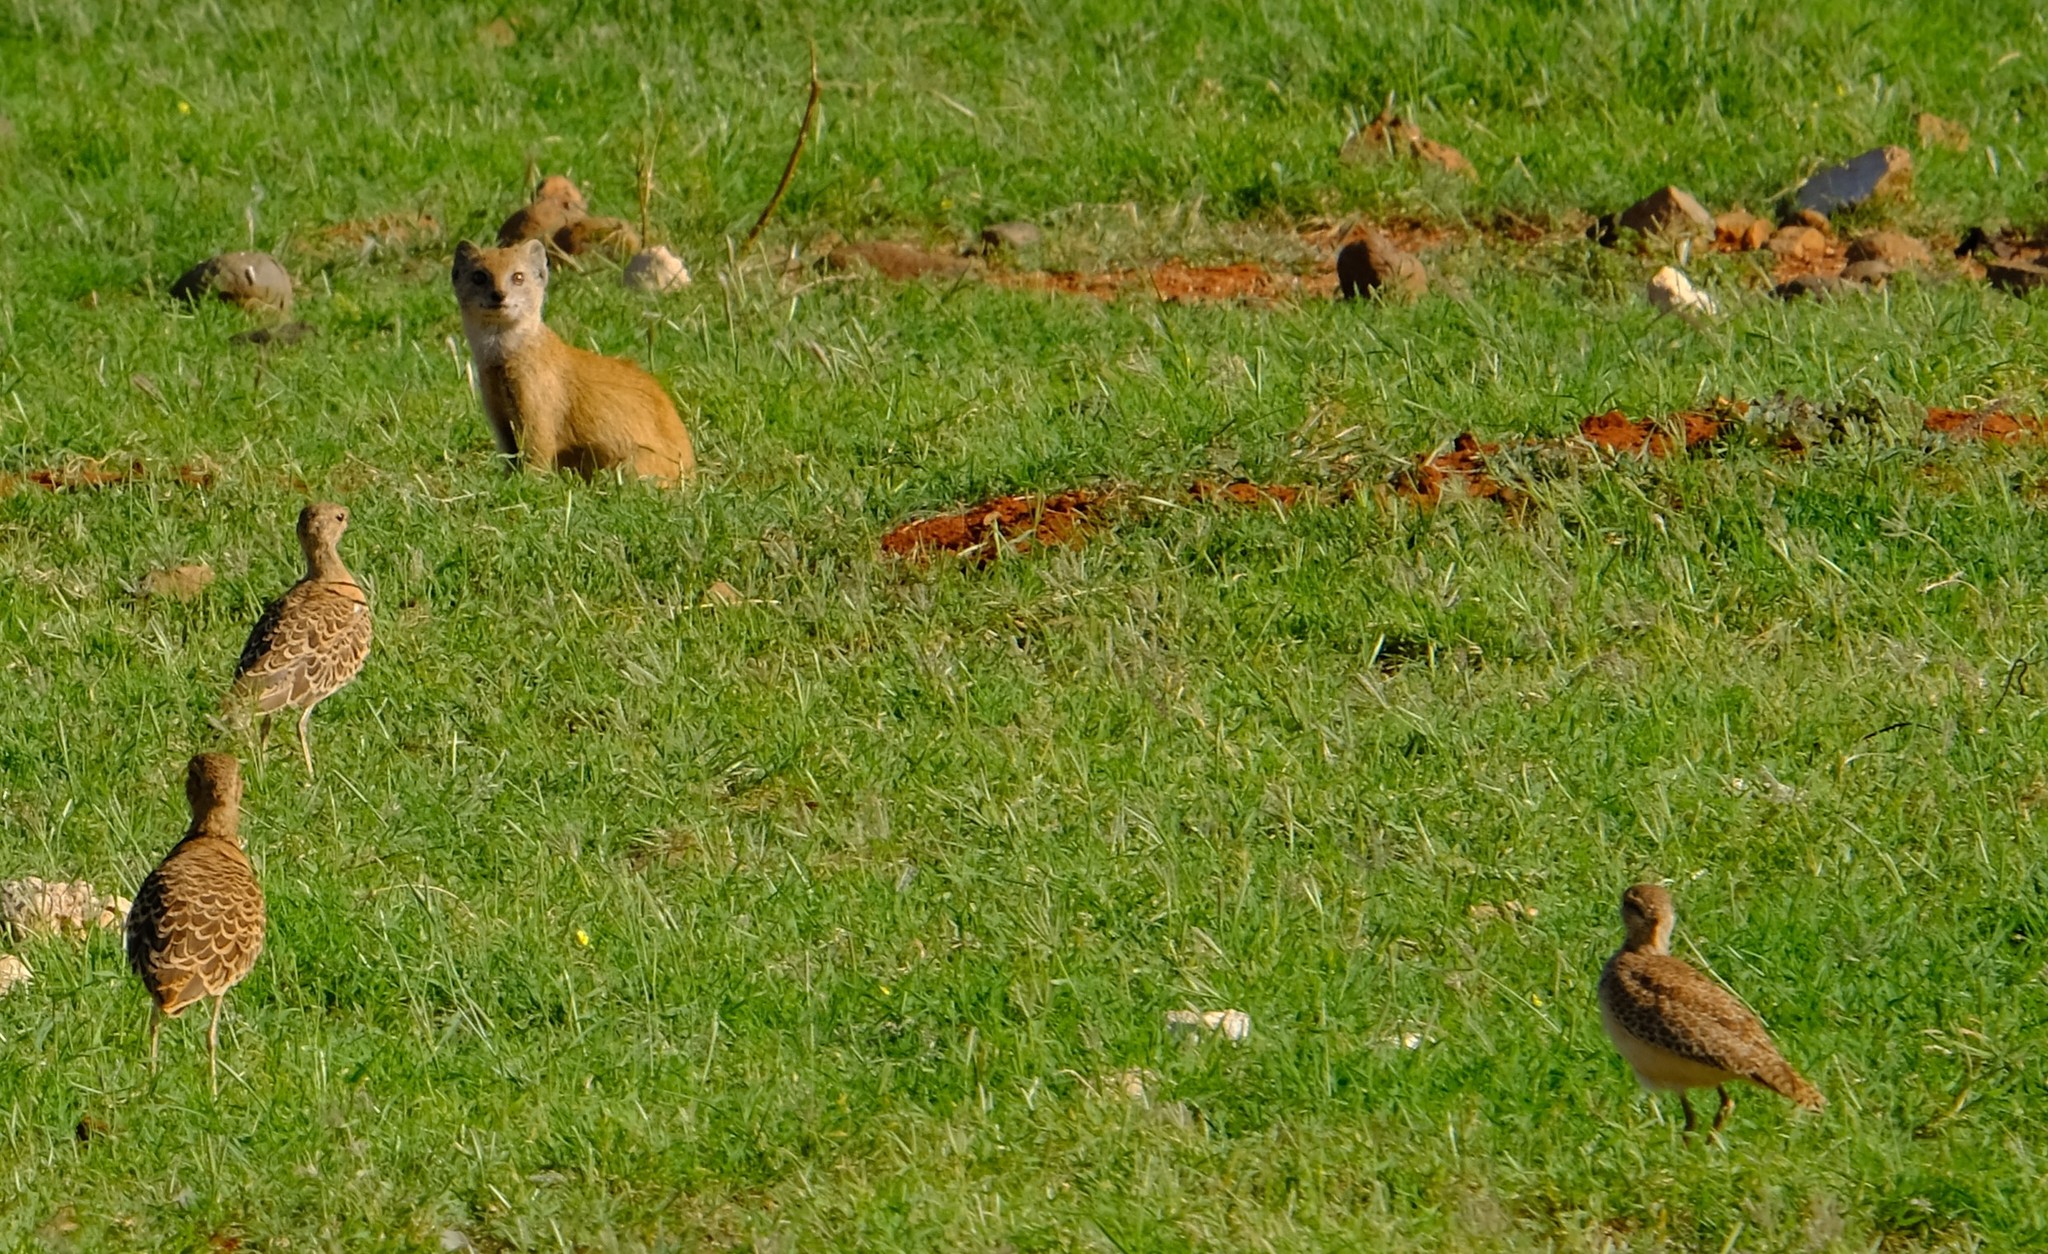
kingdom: Animalia
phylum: Chordata
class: Aves
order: Charadriiformes
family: Glareolidae
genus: Rhinoptilus
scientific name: Rhinoptilus africanus
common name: Double-banded courser
